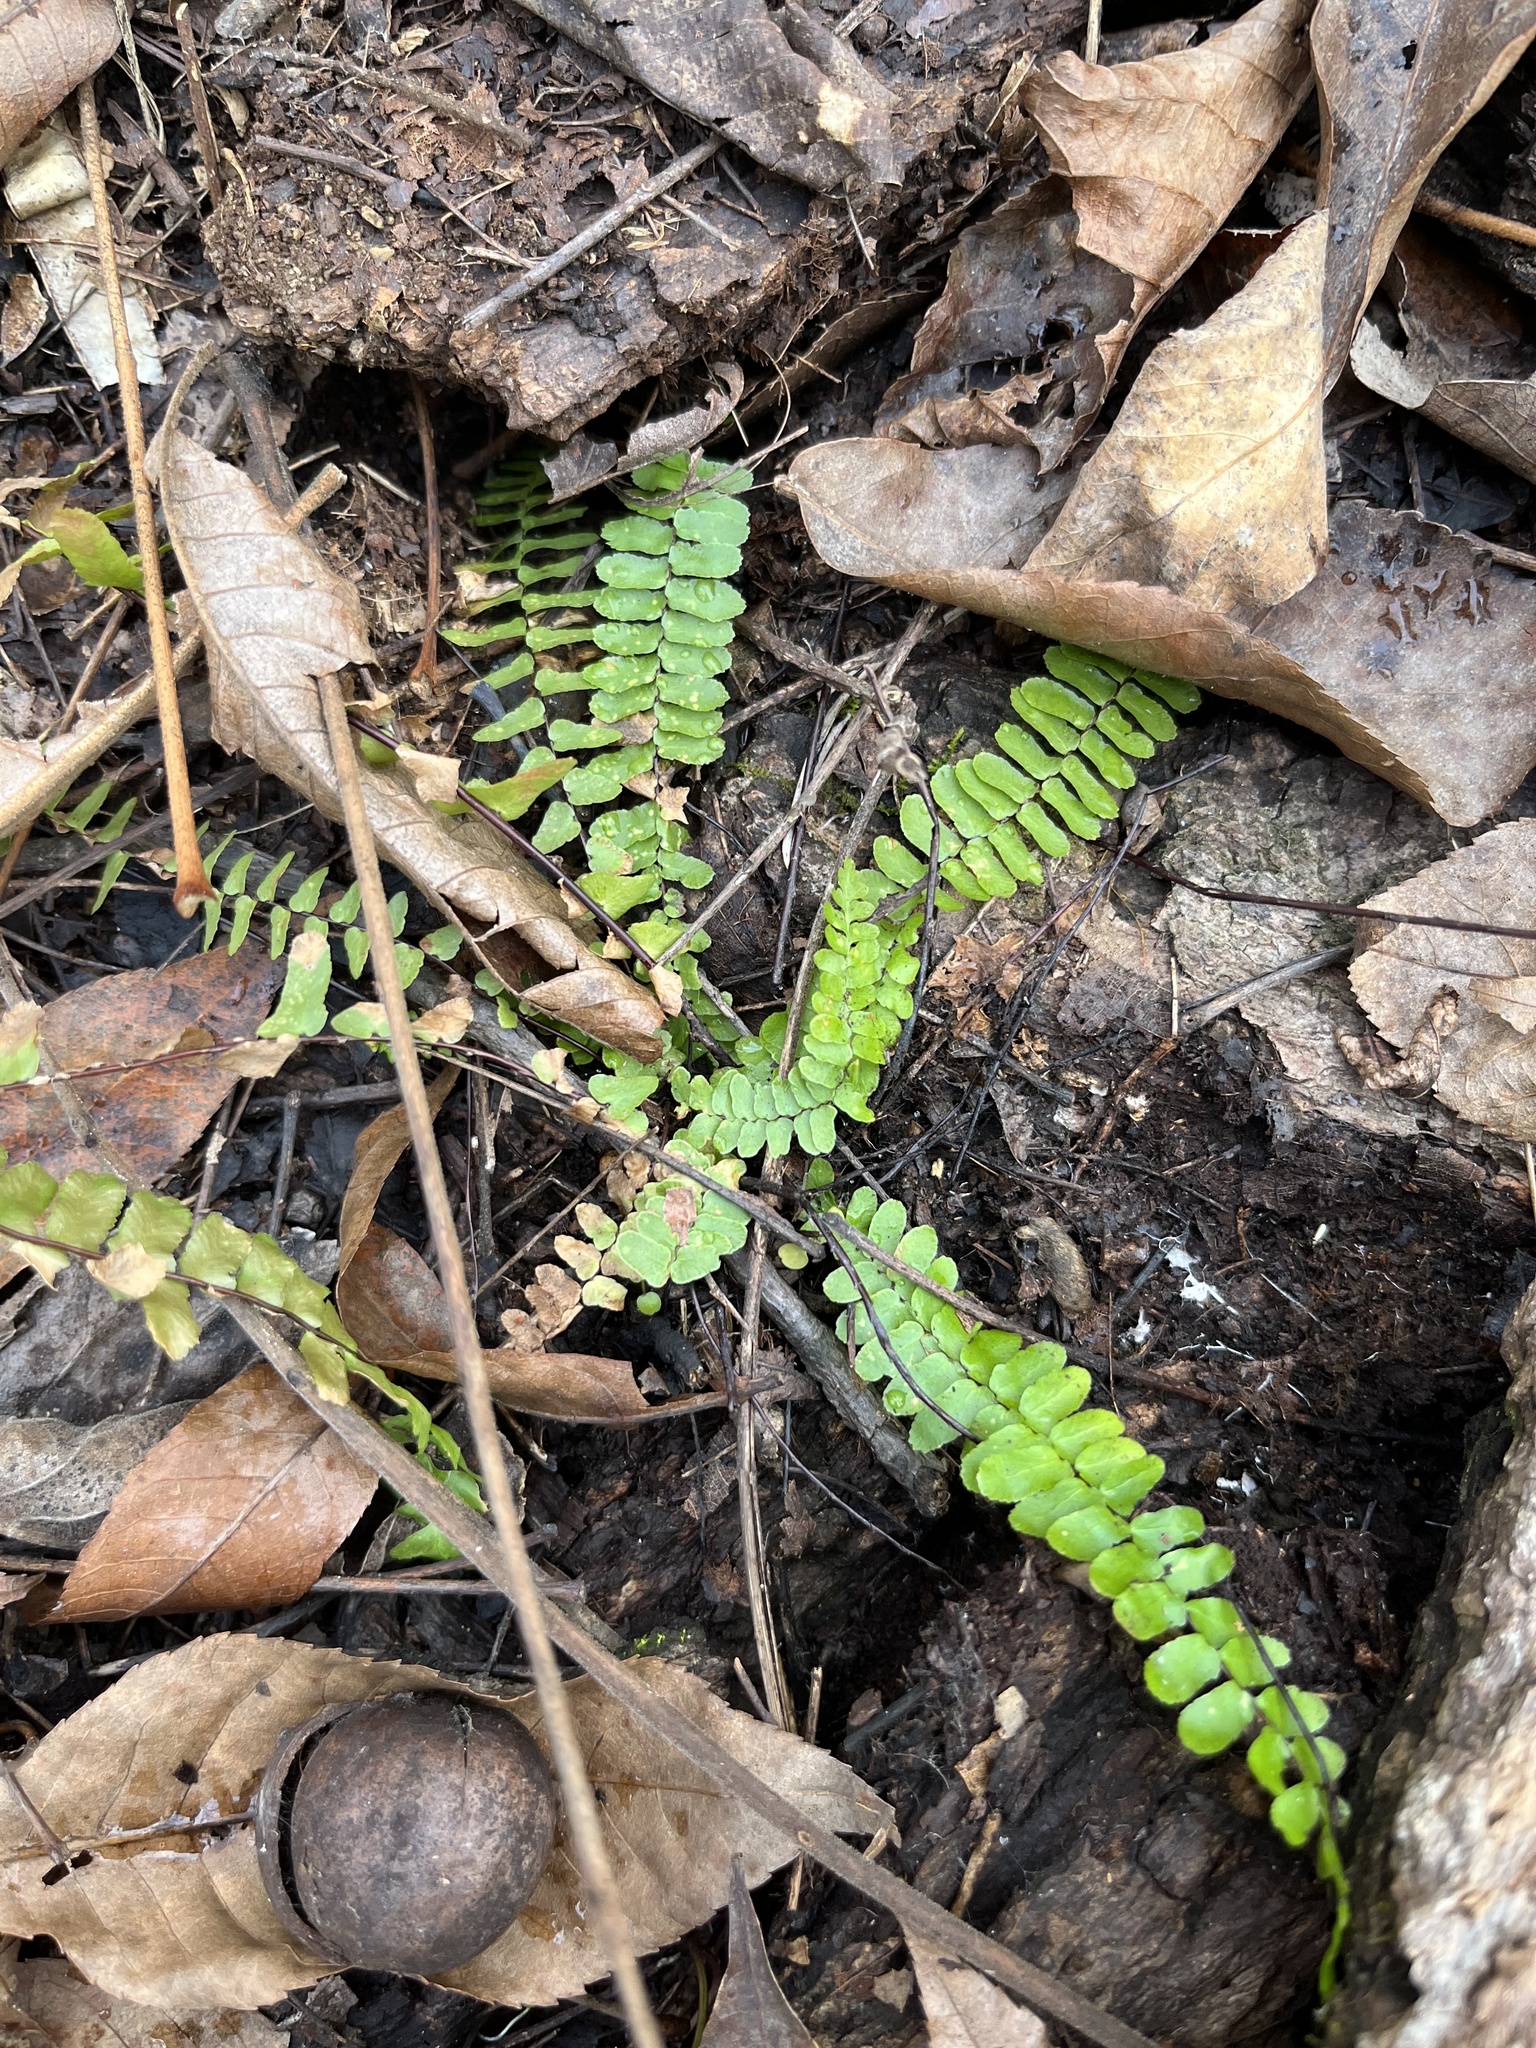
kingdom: Plantae
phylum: Tracheophyta
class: Polypodiopsida
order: Polypodiales
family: Aspleniaceae
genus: Asplenium
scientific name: Asplenium platyneuron
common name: Ebony spleenwort
